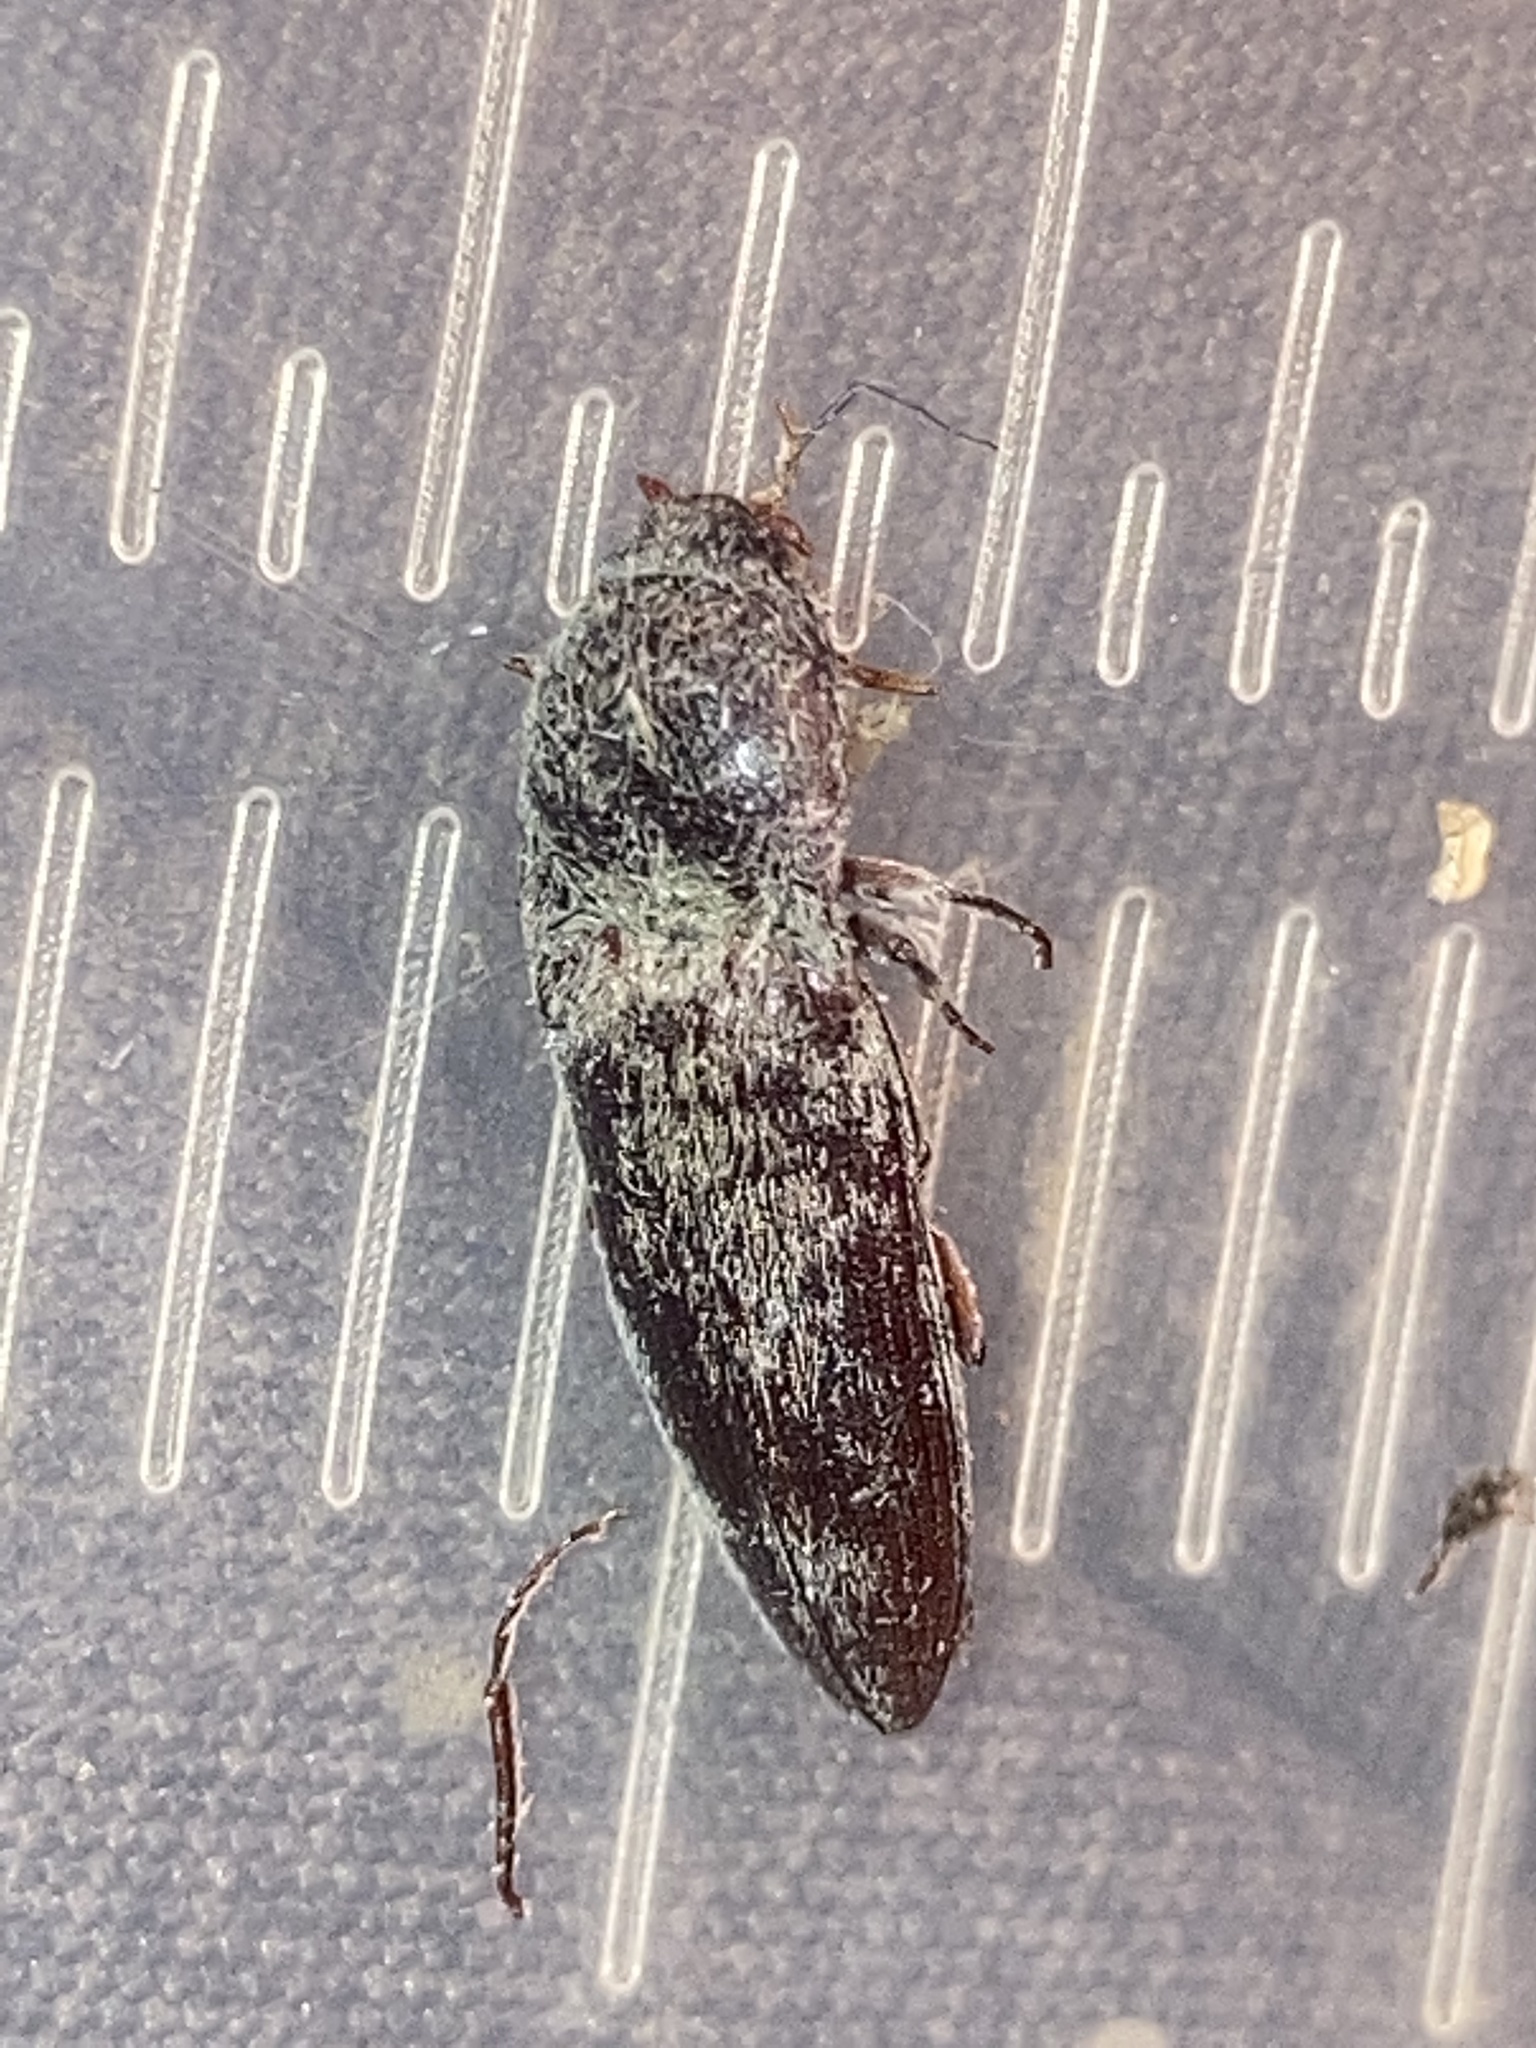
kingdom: Animalia
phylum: Arthropoda
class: Insecta
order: Coleoptera
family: Elateridae
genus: Melanotus
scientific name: Melanotus
